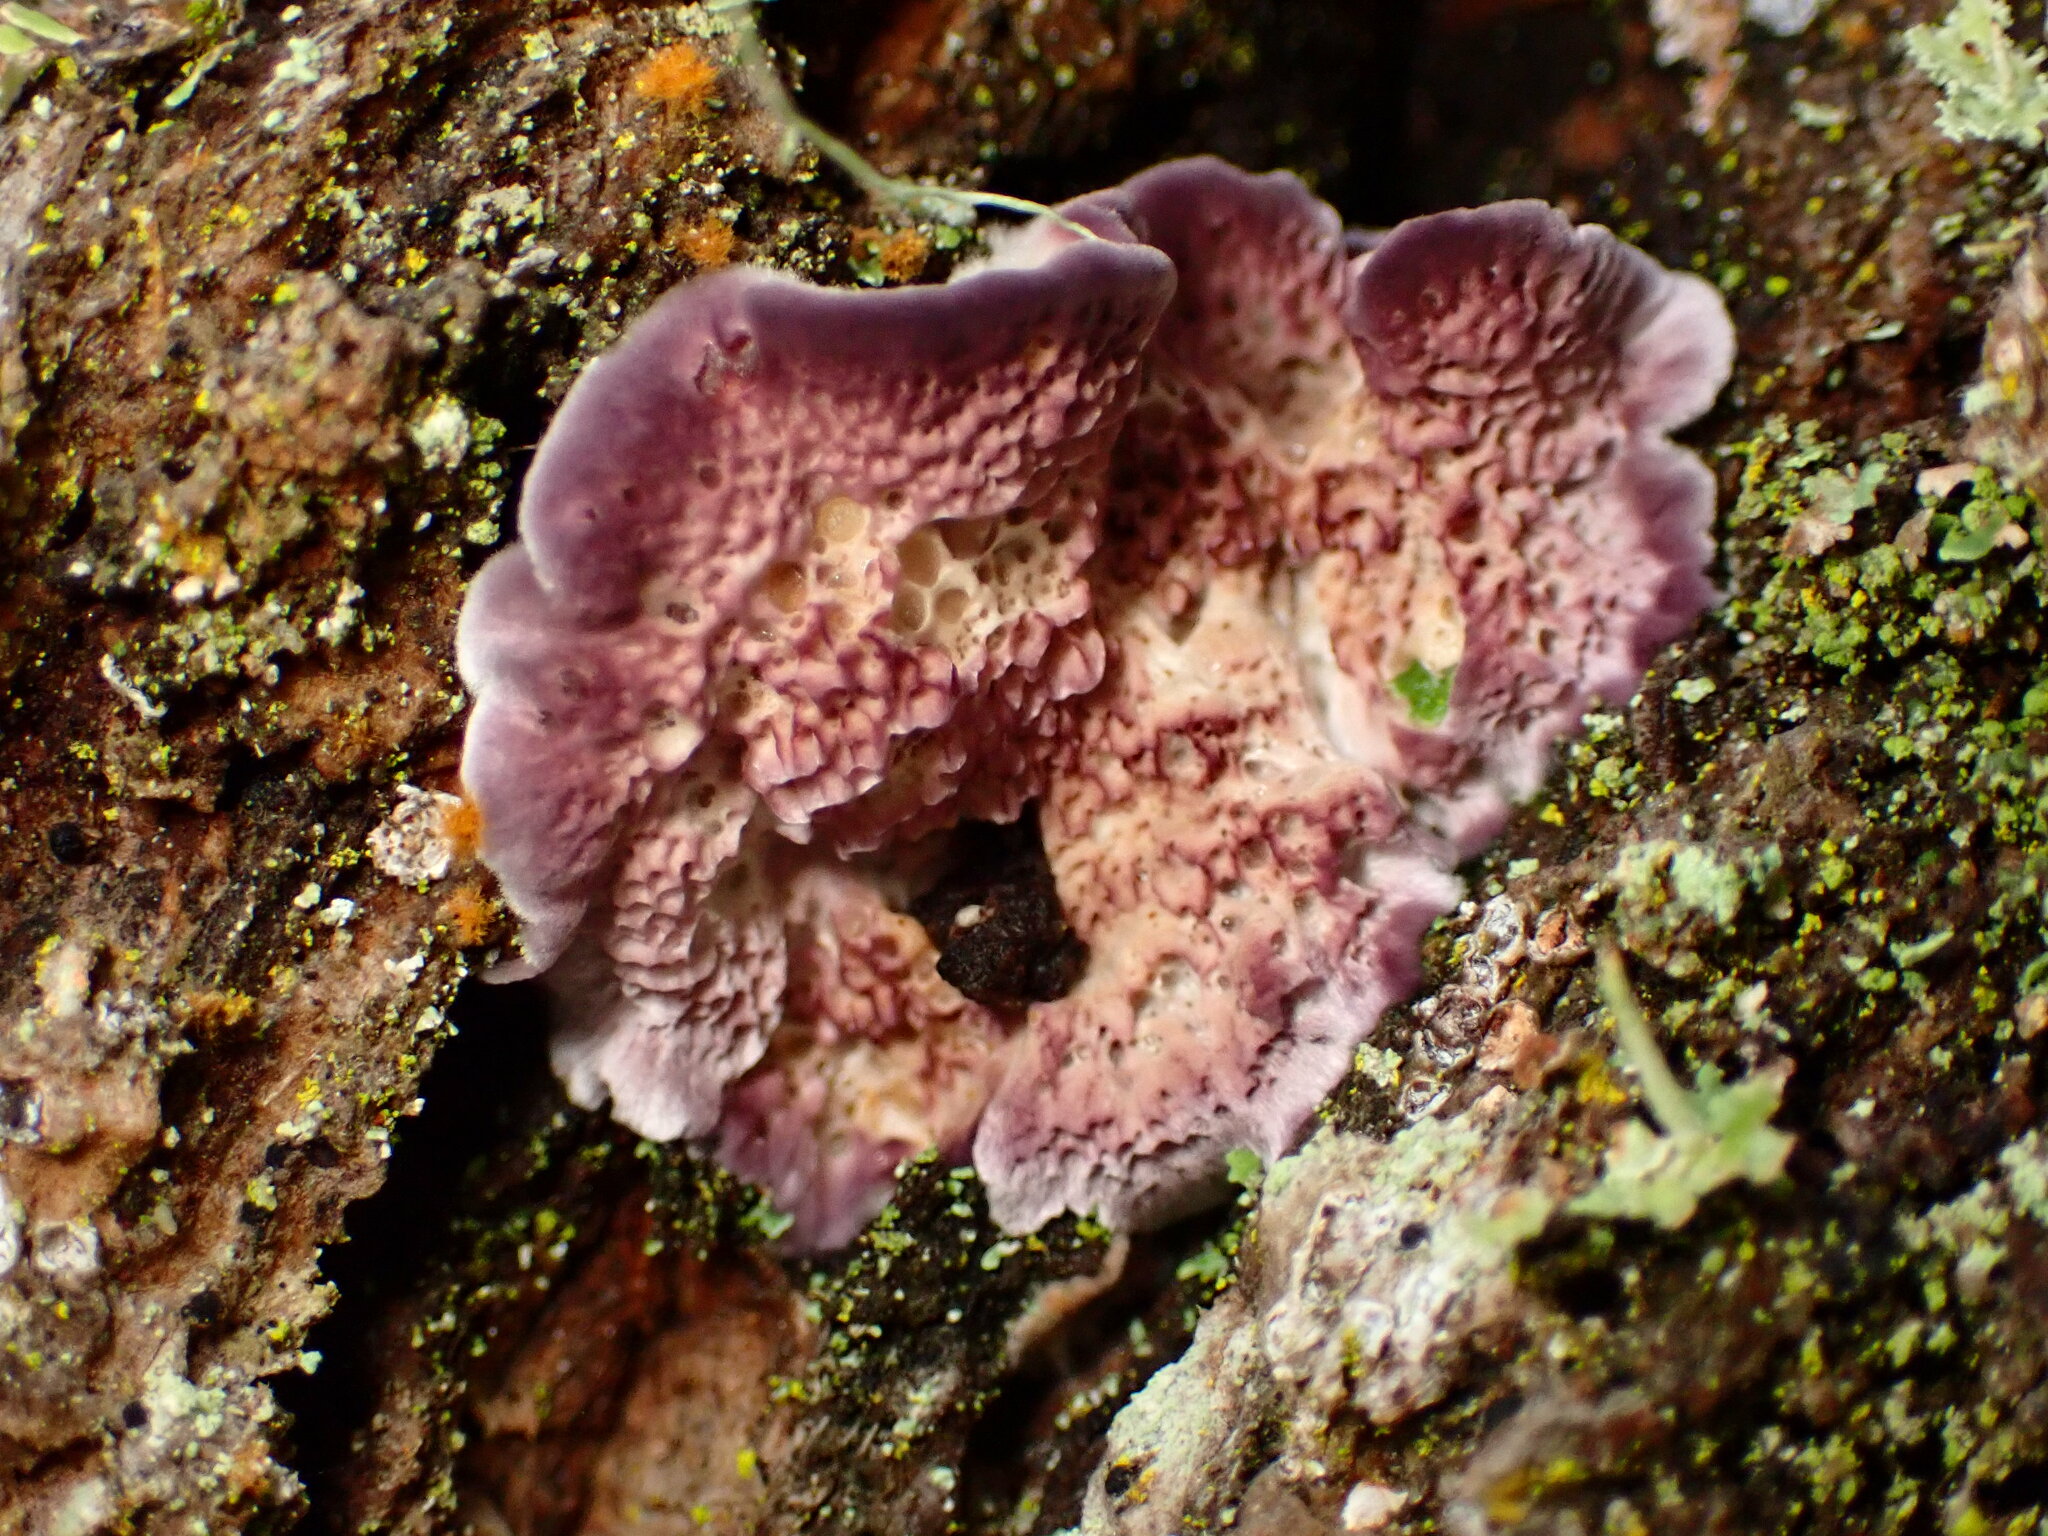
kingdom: Fungi
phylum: Basidiomycota
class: Agaricomycetes
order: Hymenochaetales
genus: Trichaptum
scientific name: Trichaptum abietinum
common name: Purplepore bracket
